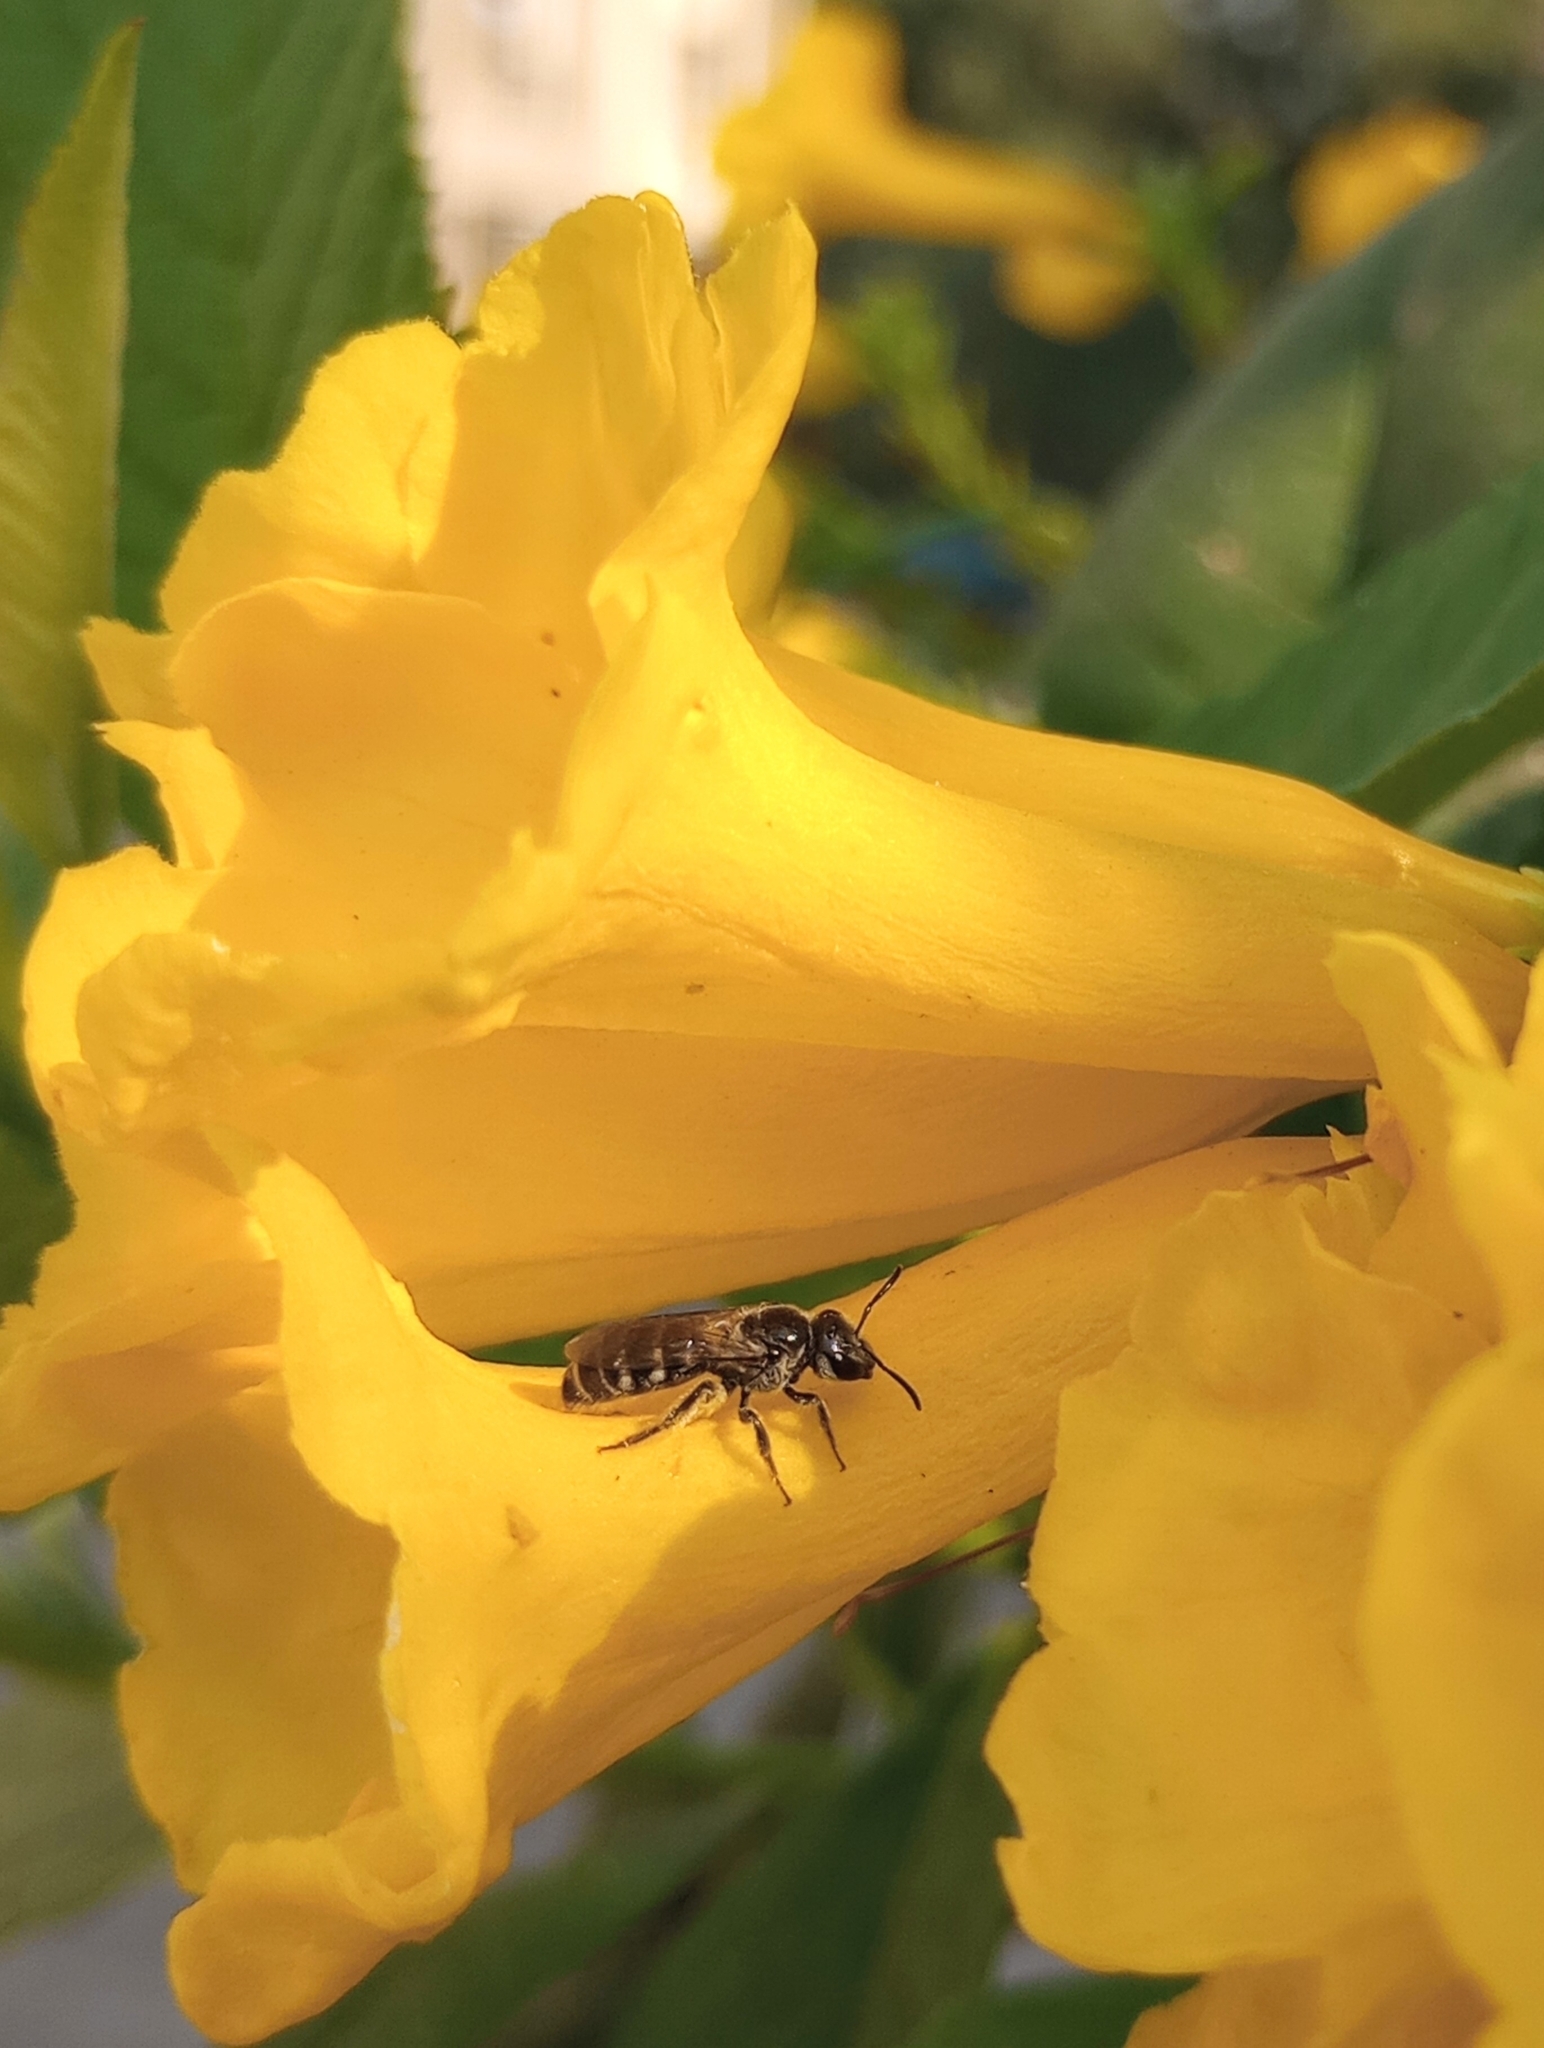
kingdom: Animalia
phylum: Arthropoda
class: Insecta
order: Hymenoptera
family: Halictidae
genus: Lasioglossum
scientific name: Lasioglossum albescens
